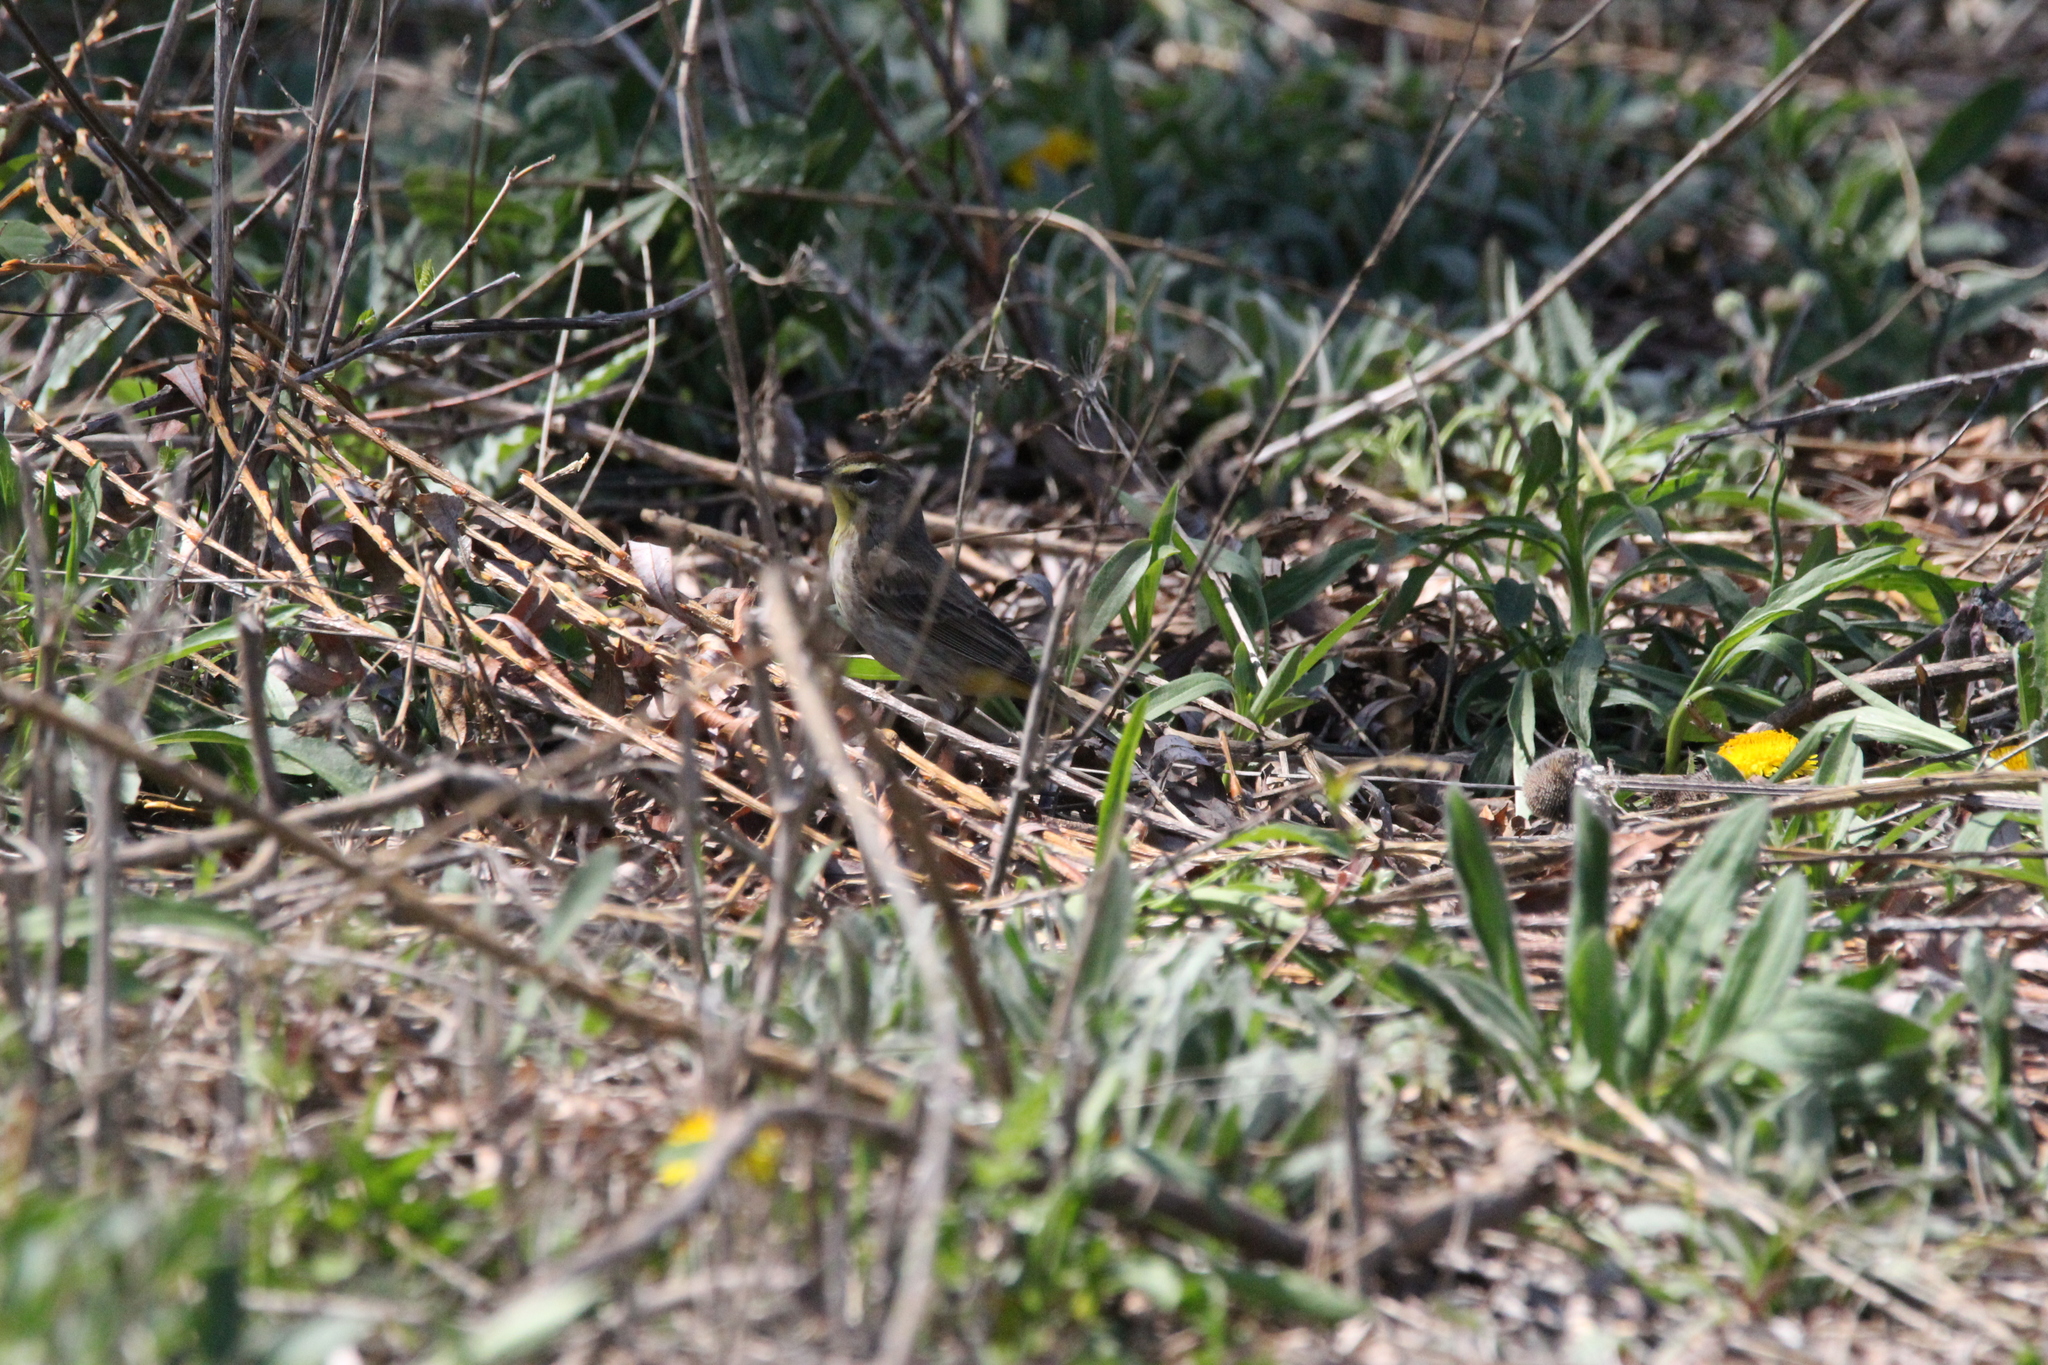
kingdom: Animalia
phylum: Chordata
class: Aves
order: Passeriformes
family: Parulidae
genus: Setophaga
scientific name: Setophaga palmarum
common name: Palm warbler
